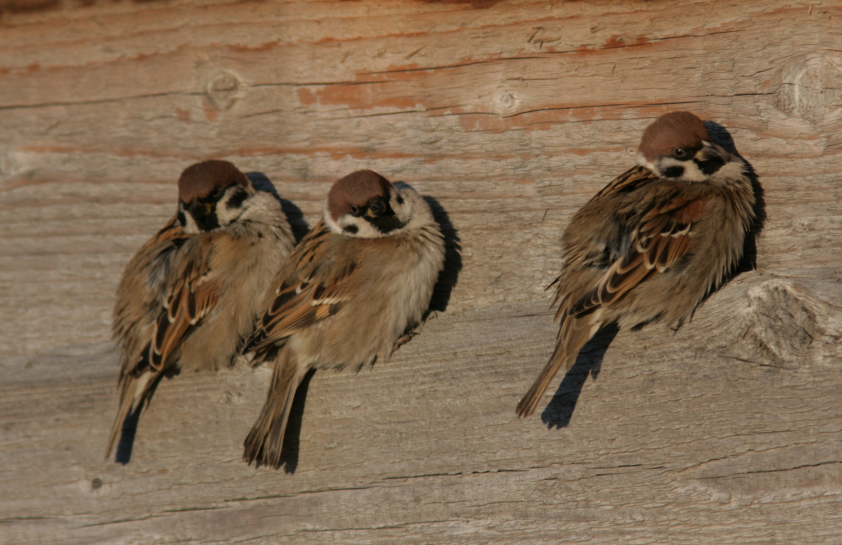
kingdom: Animalia
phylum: Chordata
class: Aves
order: Passeriformes
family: Passeridae
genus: Passer
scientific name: Passer montanus
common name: Eurasian tree sparrow
